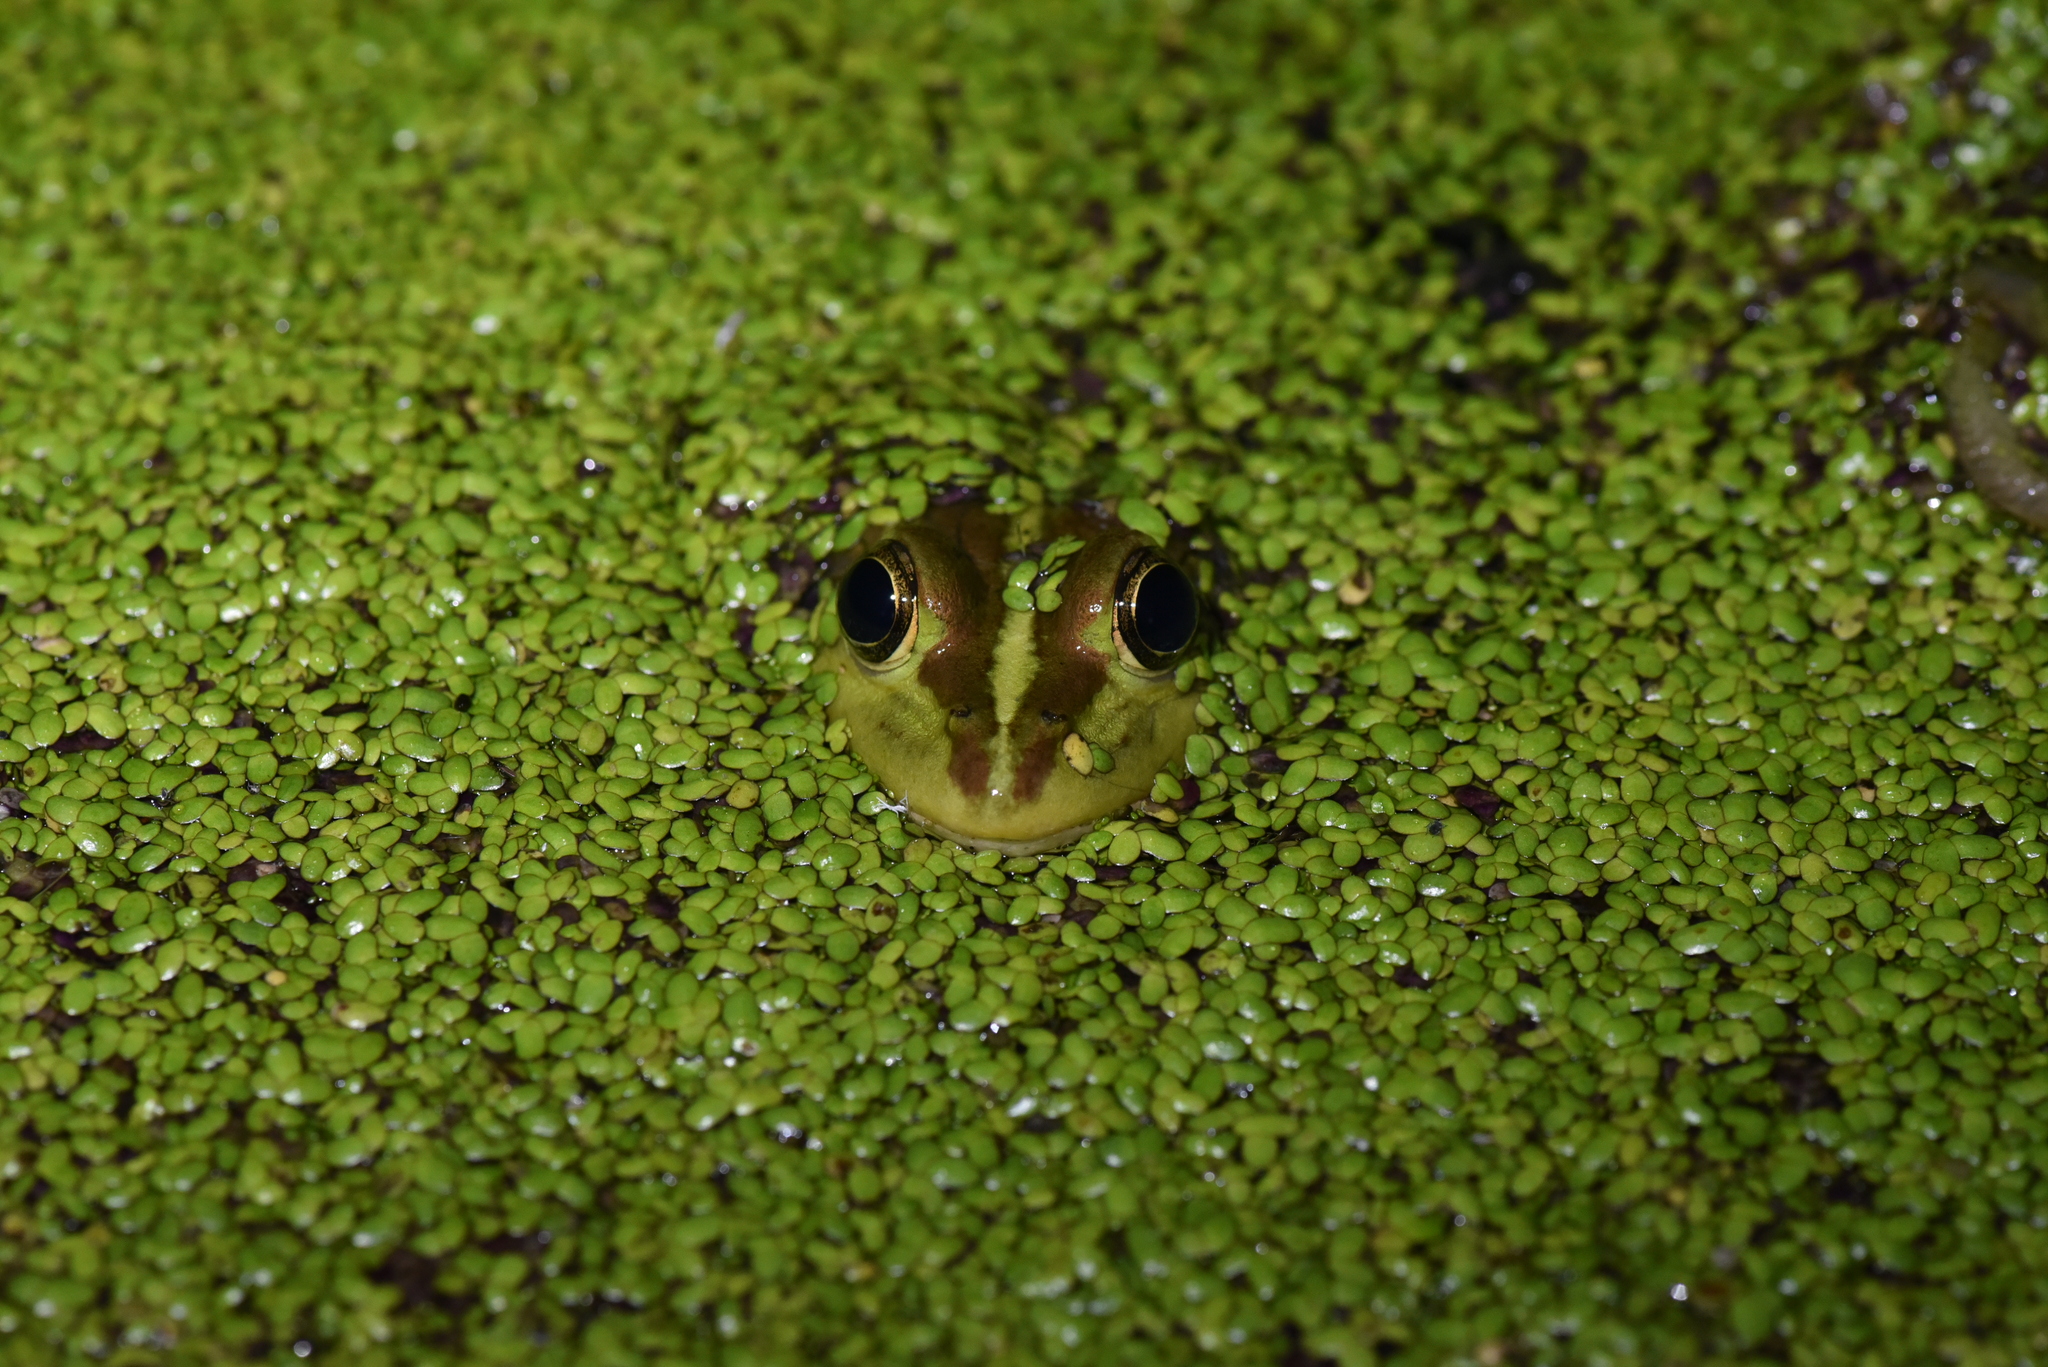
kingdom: Animalia
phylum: Chordata
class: Amphibia
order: Anura
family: Ranidae
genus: Pelophylax
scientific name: Pelophylax fukienensis
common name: Fukien gold-striped pond frog
